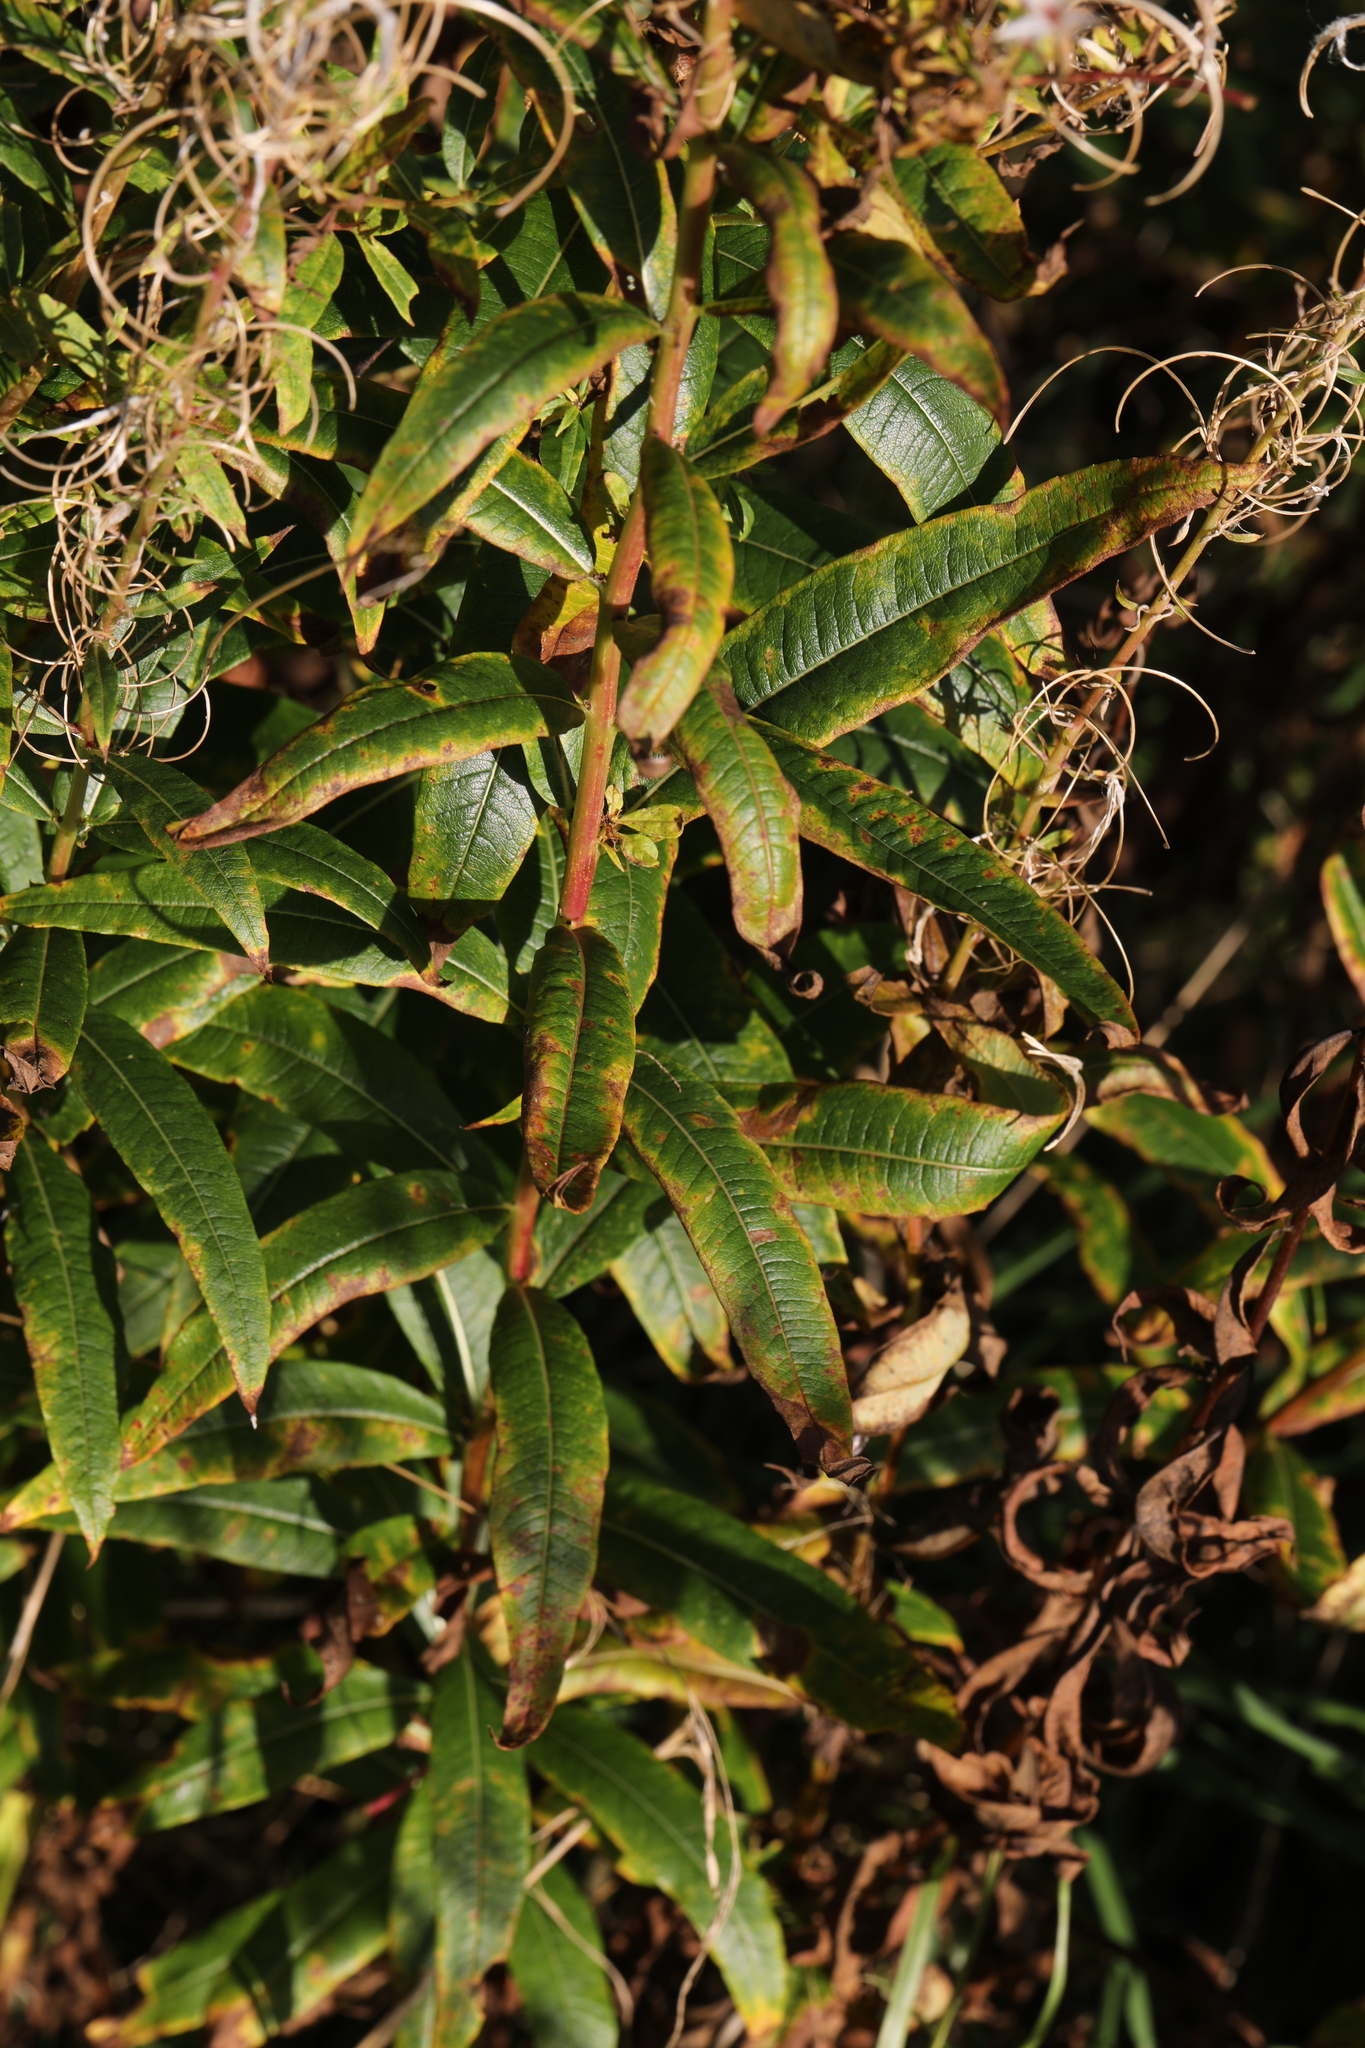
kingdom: Plantae
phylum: Tracheophyta
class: Magnoliopsida
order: Myrtales
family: Onagraceae
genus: Chamaenerion
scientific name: Chamaenerion angustifolium
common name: Fireweed
